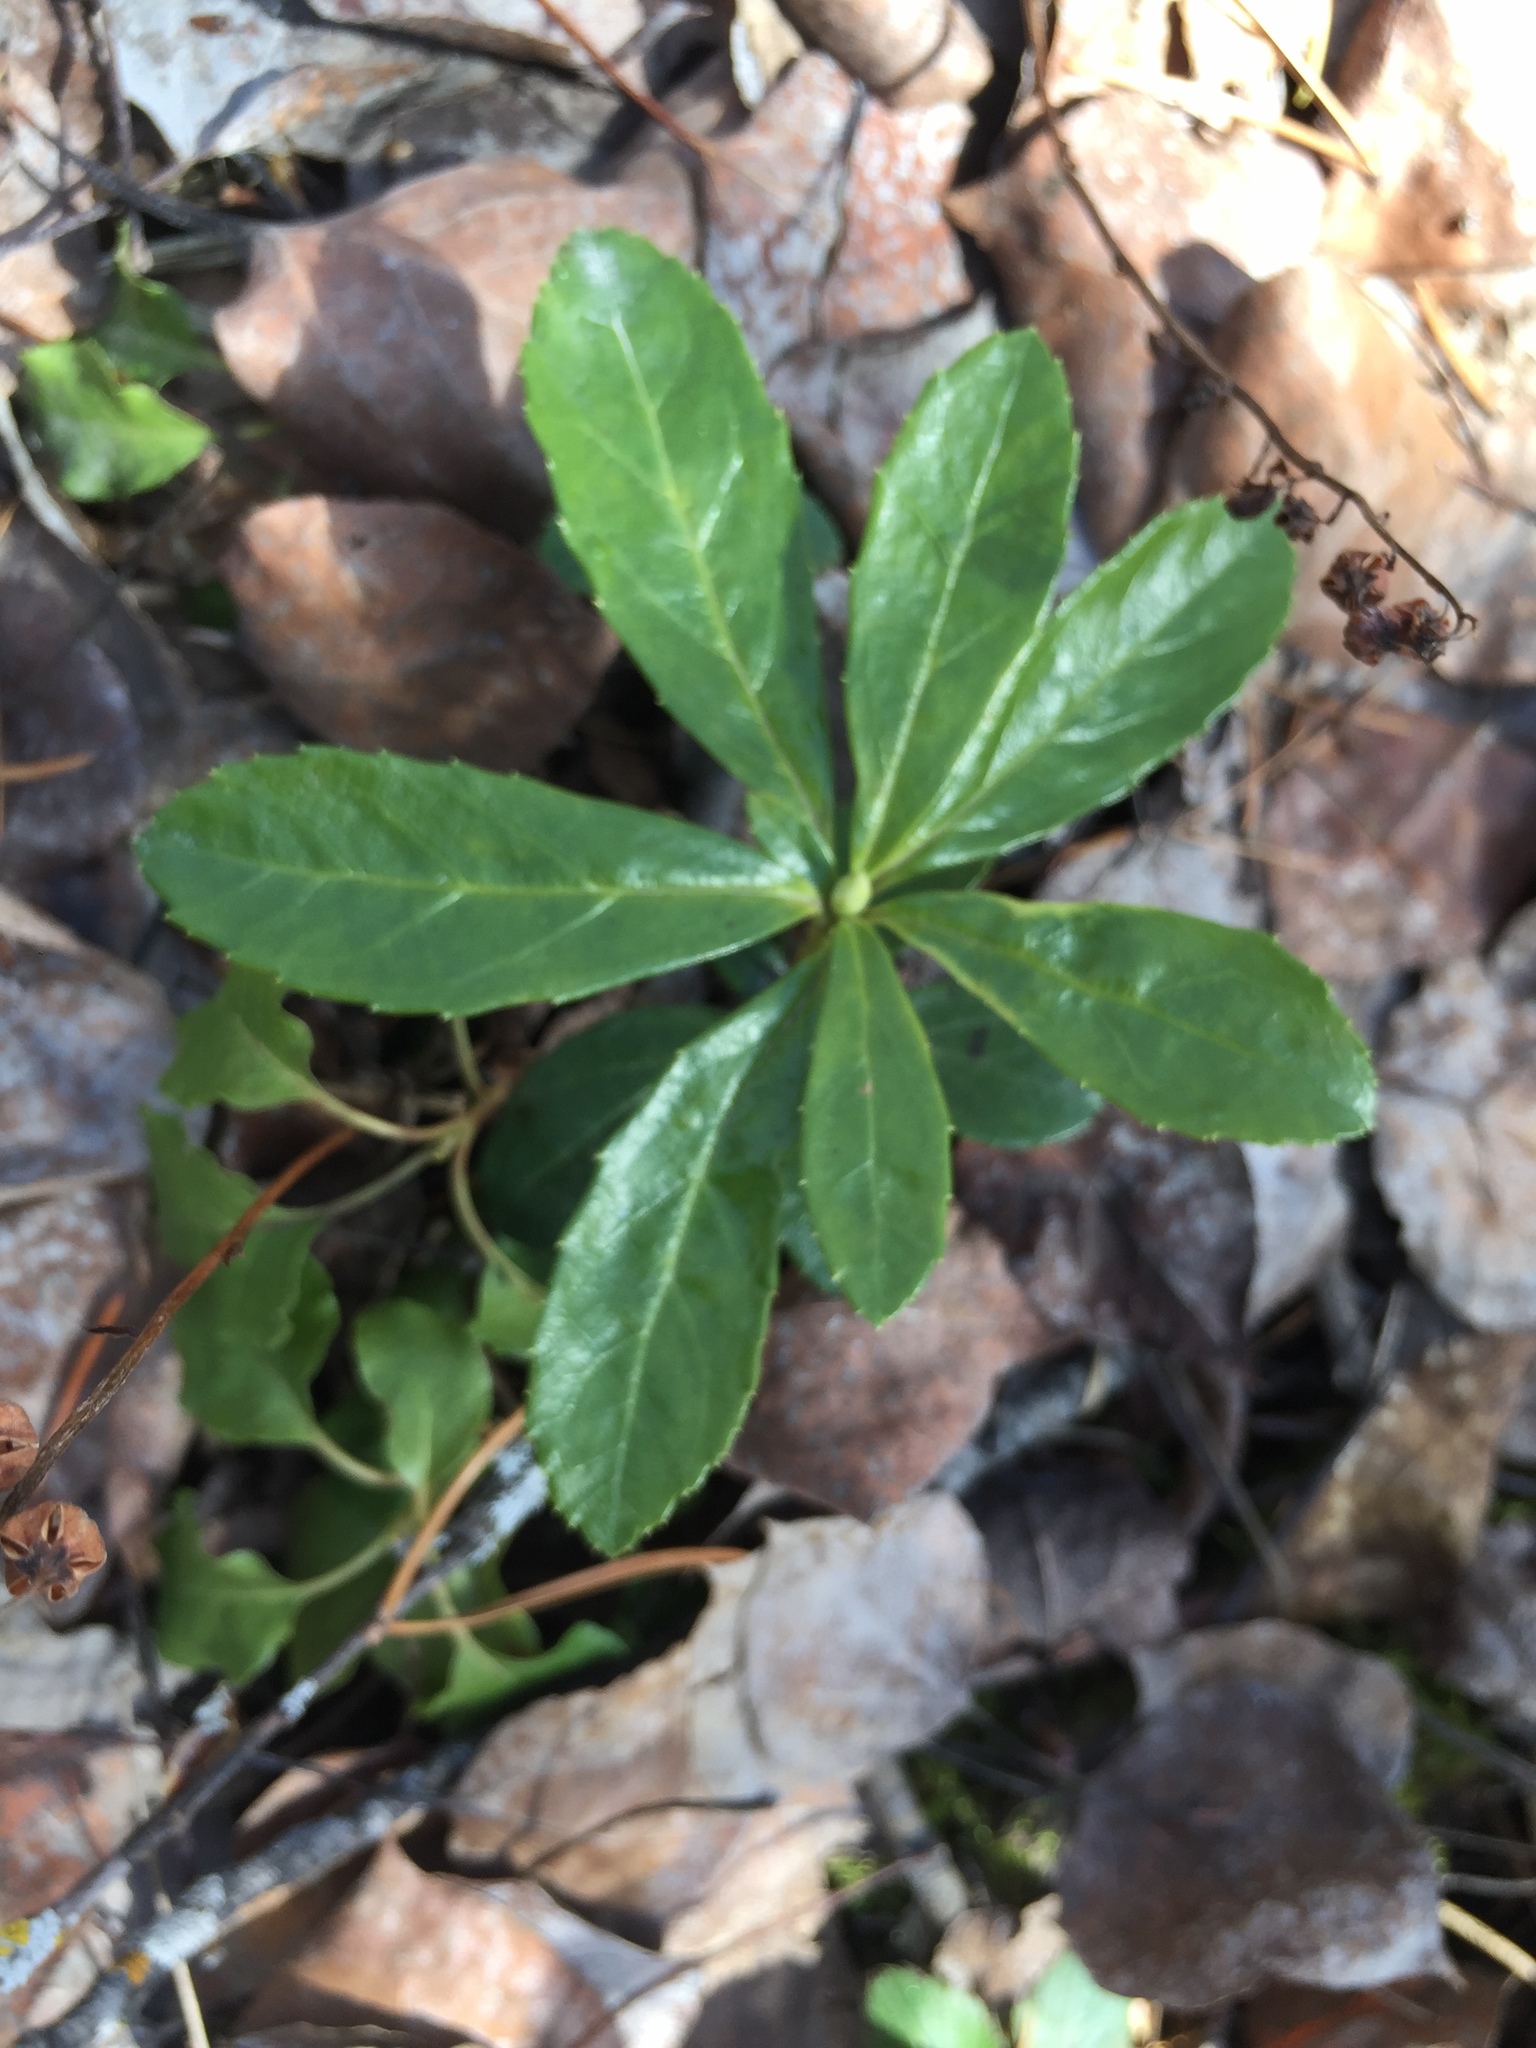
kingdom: Plantae
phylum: Tracheophyta
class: Magnoliopsida
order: Ericales
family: Ericaceae
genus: Chimaphila
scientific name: Chimaphila umbellata
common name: Pipsissewa
